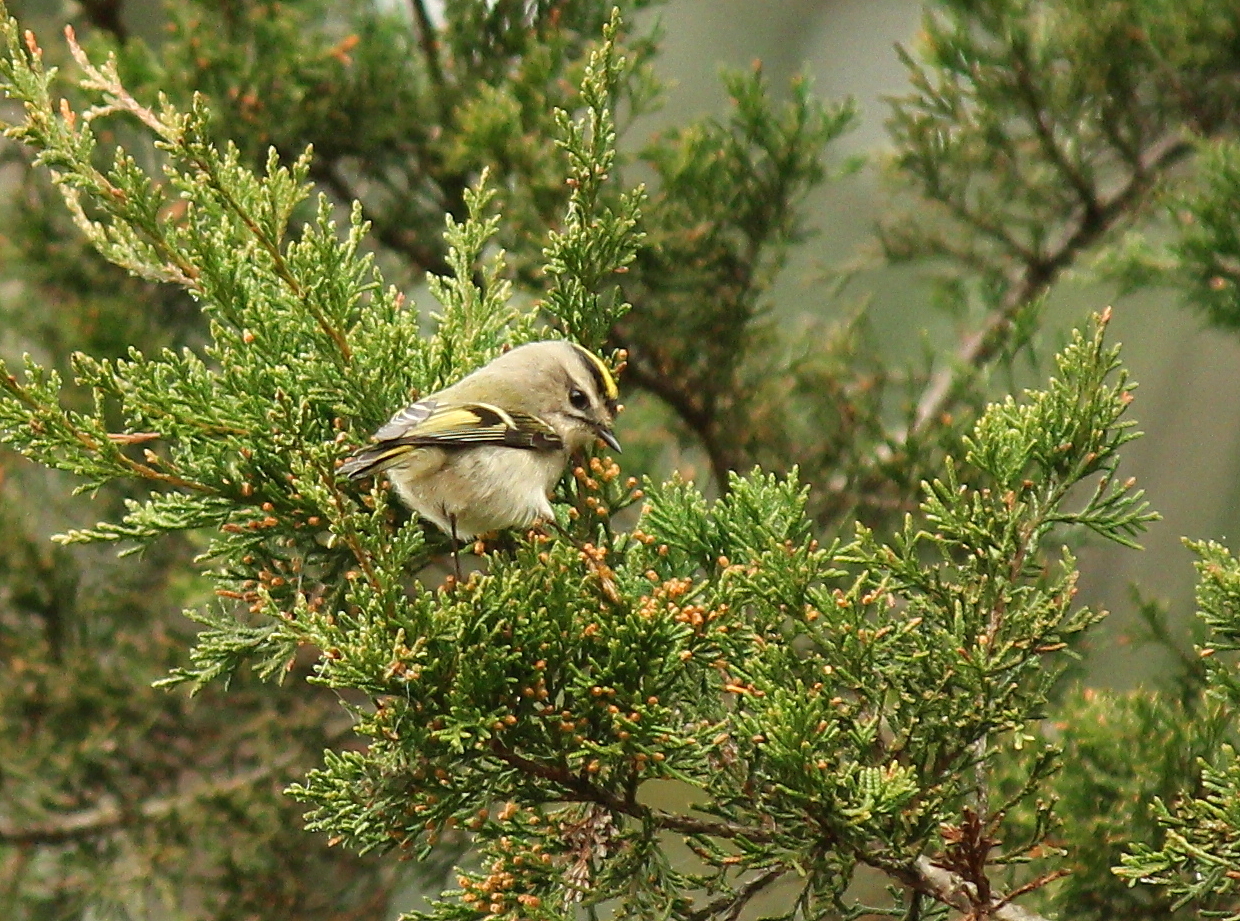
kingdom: Animalia
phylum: Chordata
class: Aves
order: Passeriformes
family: Regulidae
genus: Regulus
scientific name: Regulus satrapa
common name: Golden-crowned kinglet
